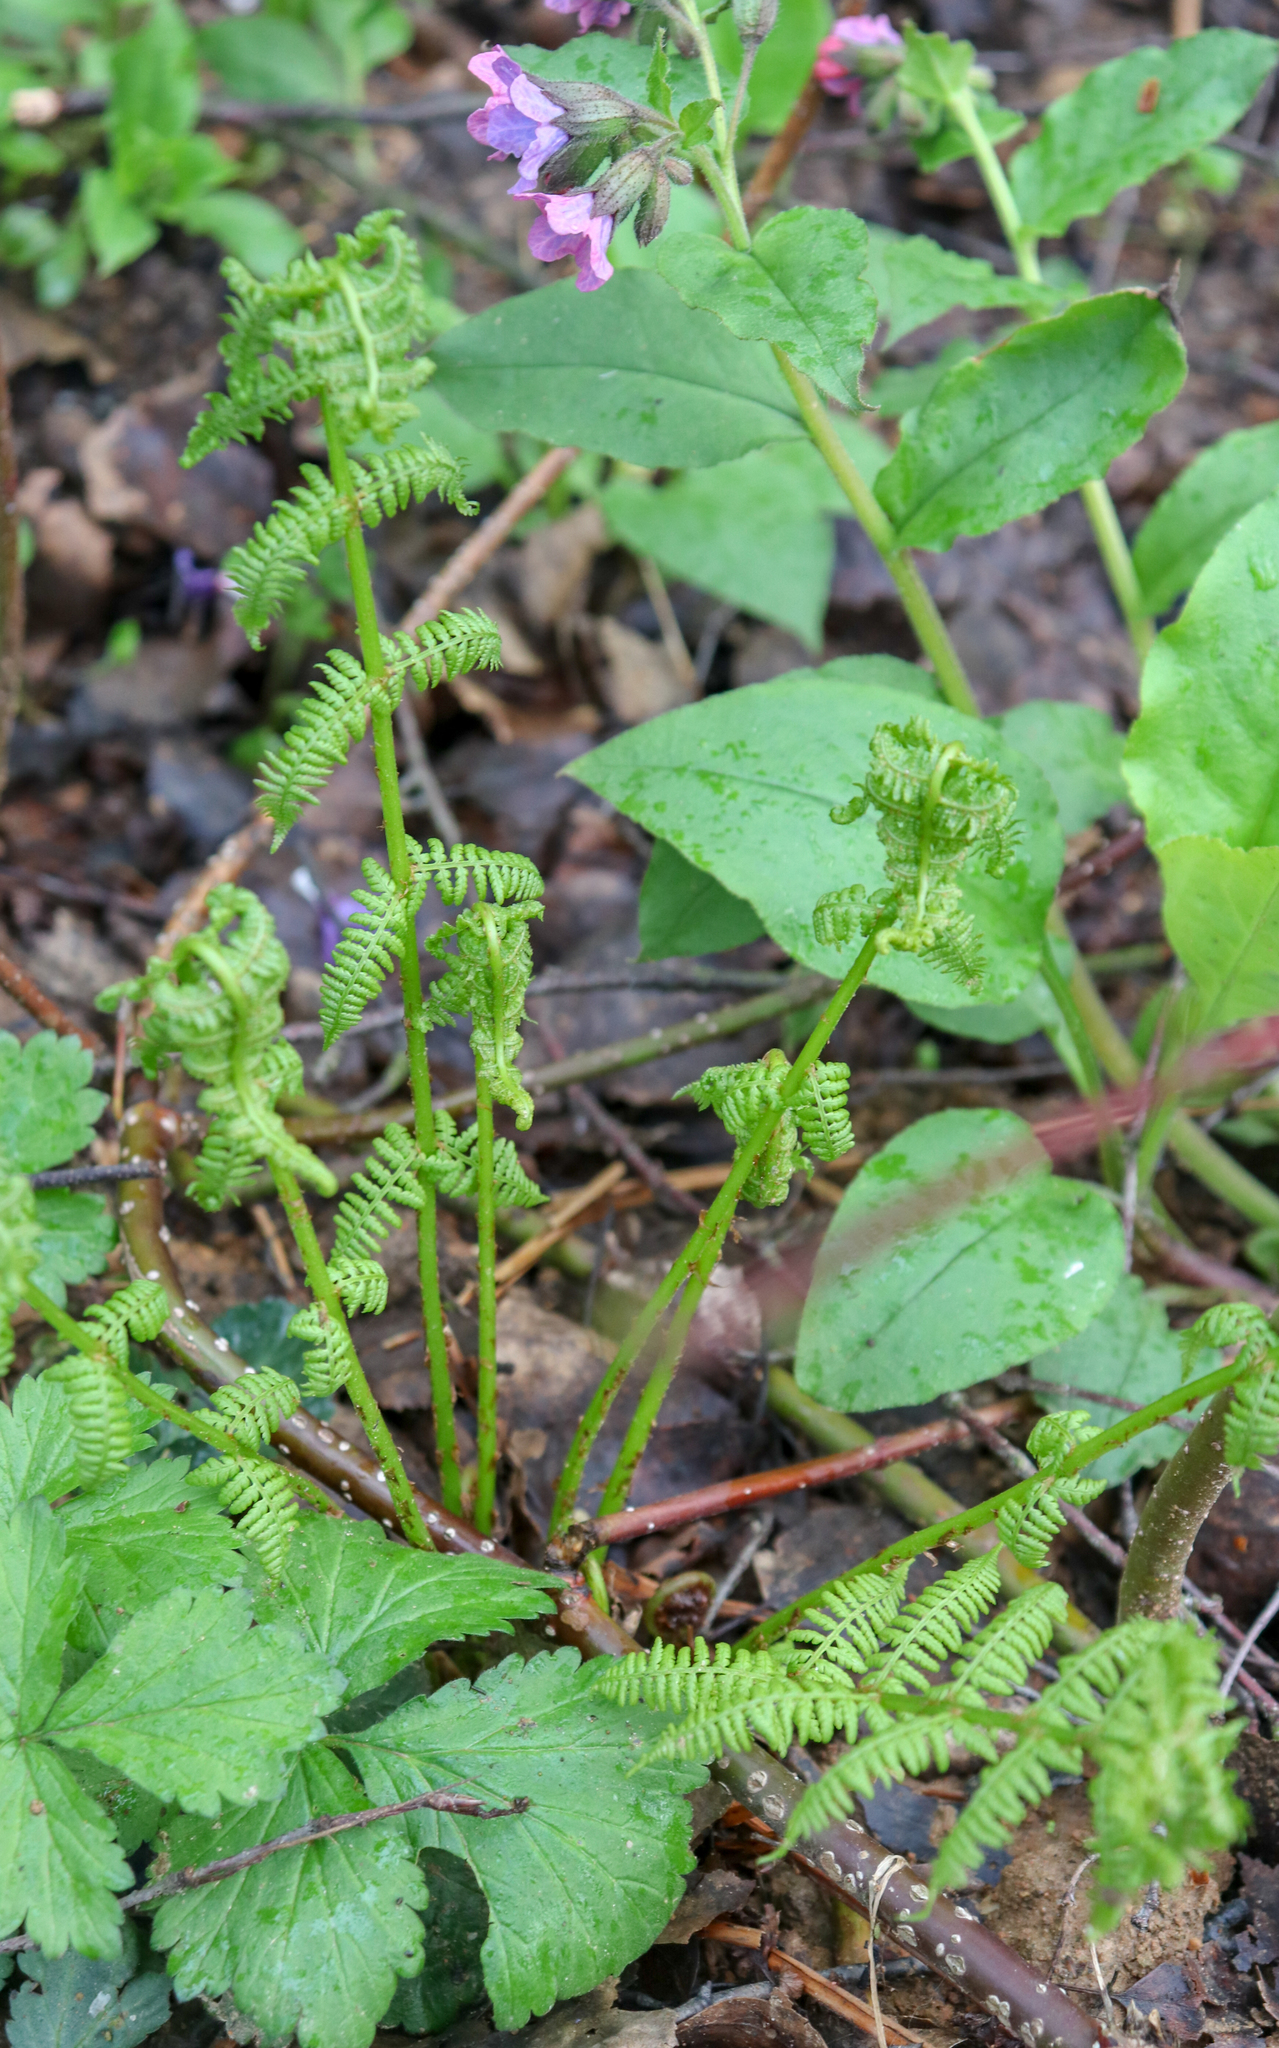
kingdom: Plantae
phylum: Tracheophyta
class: Polypodiopsida
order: Polypodiales
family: Athyriaceae
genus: Athyrium
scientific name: Athyrium filix-femina
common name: Lady fern
